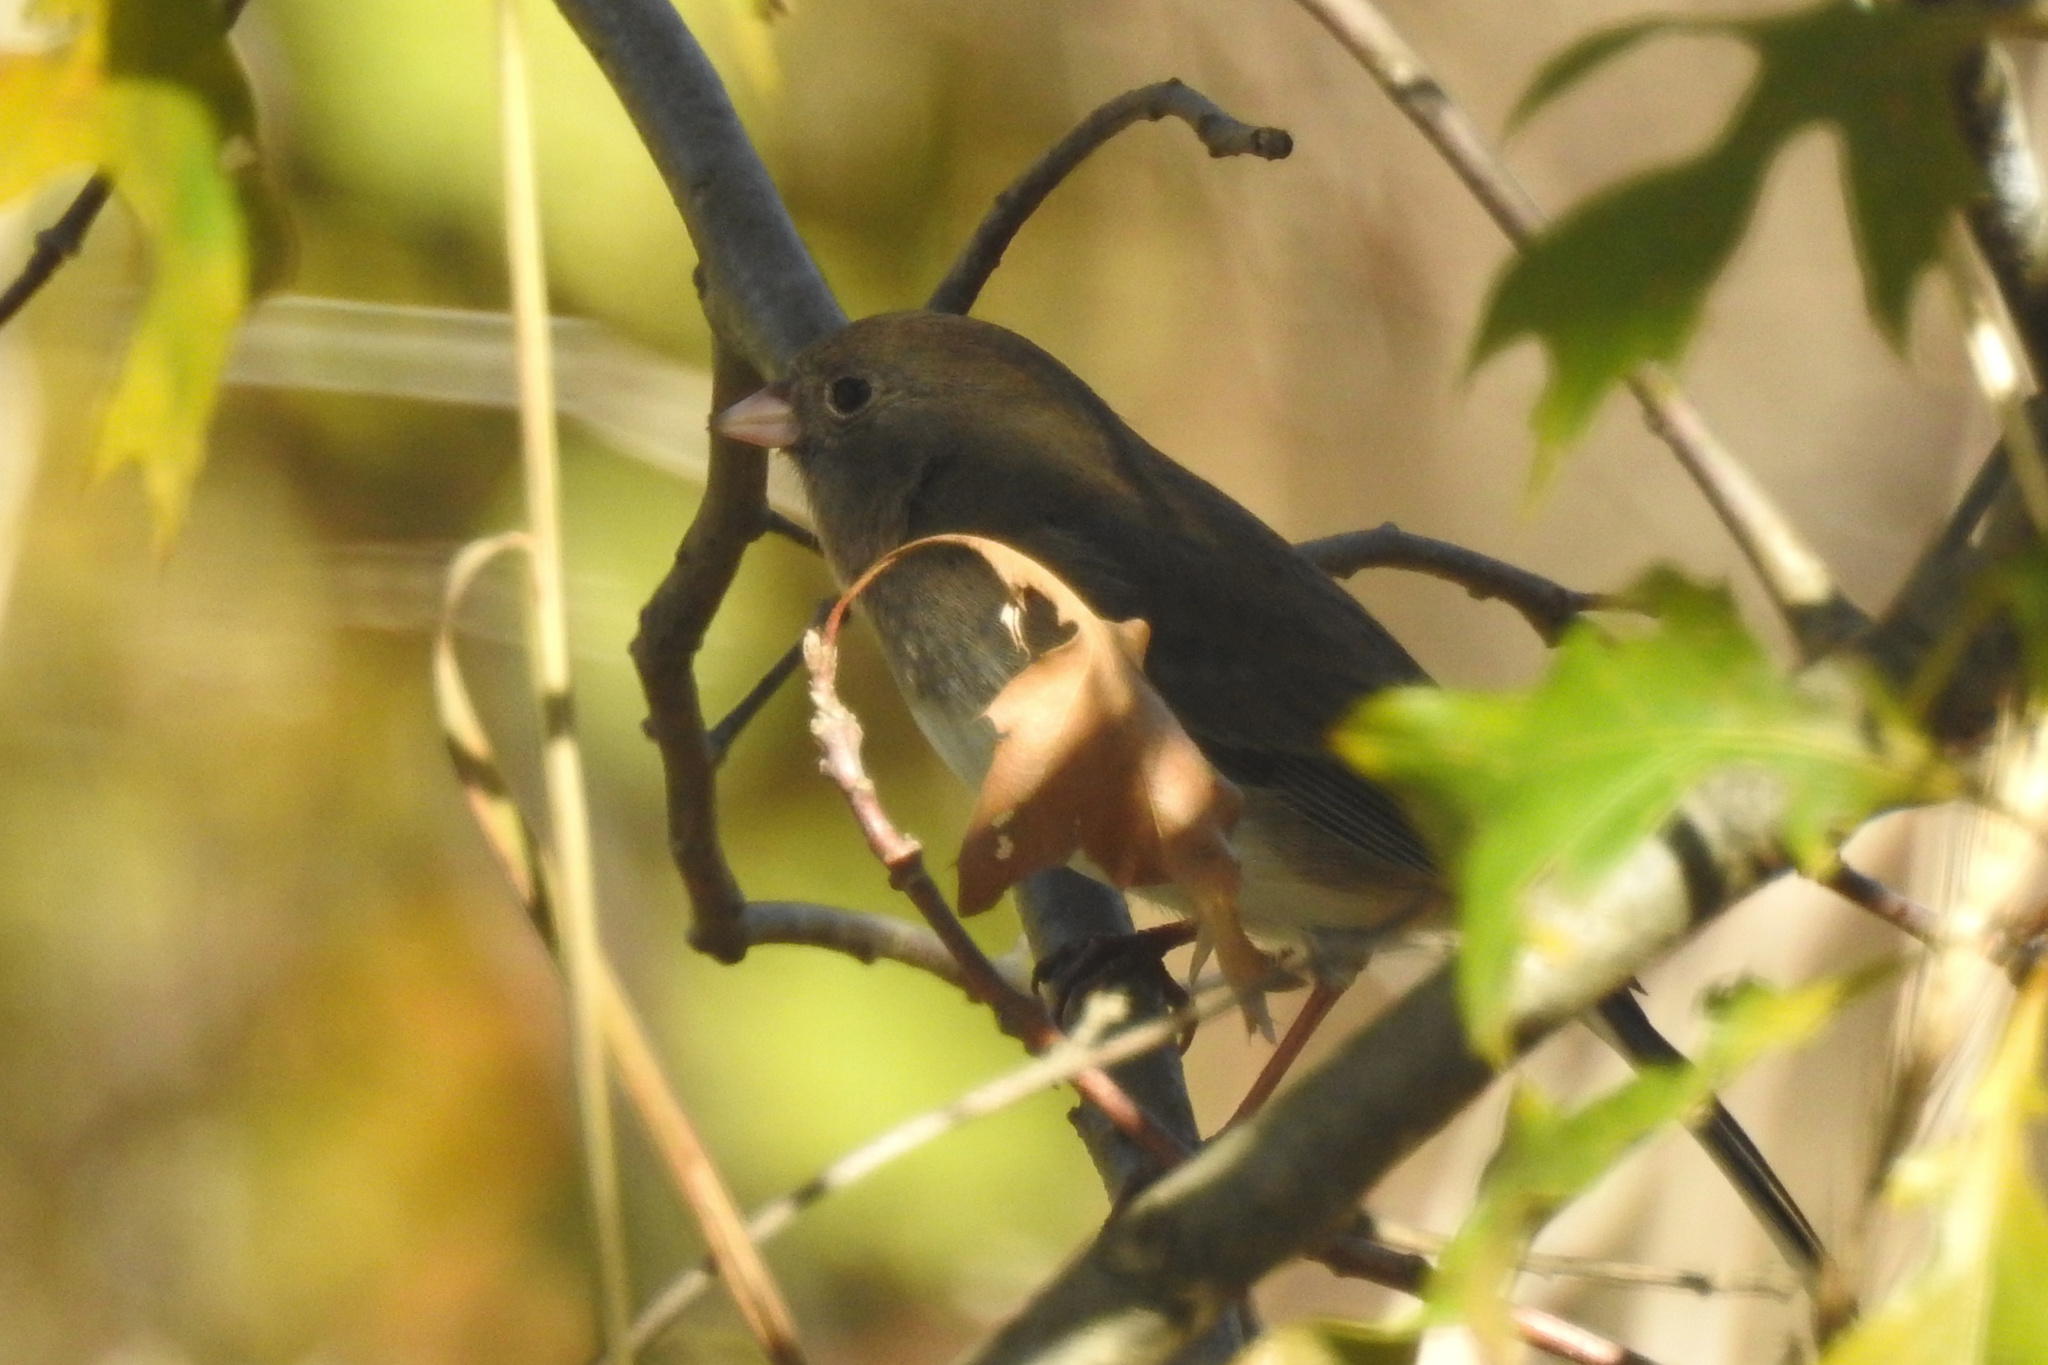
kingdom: Animalia
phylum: Chordata
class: Aves
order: Passeriformes
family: Passerellidae
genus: Junco
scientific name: Junco hyemalis
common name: Dark-eyed junco
